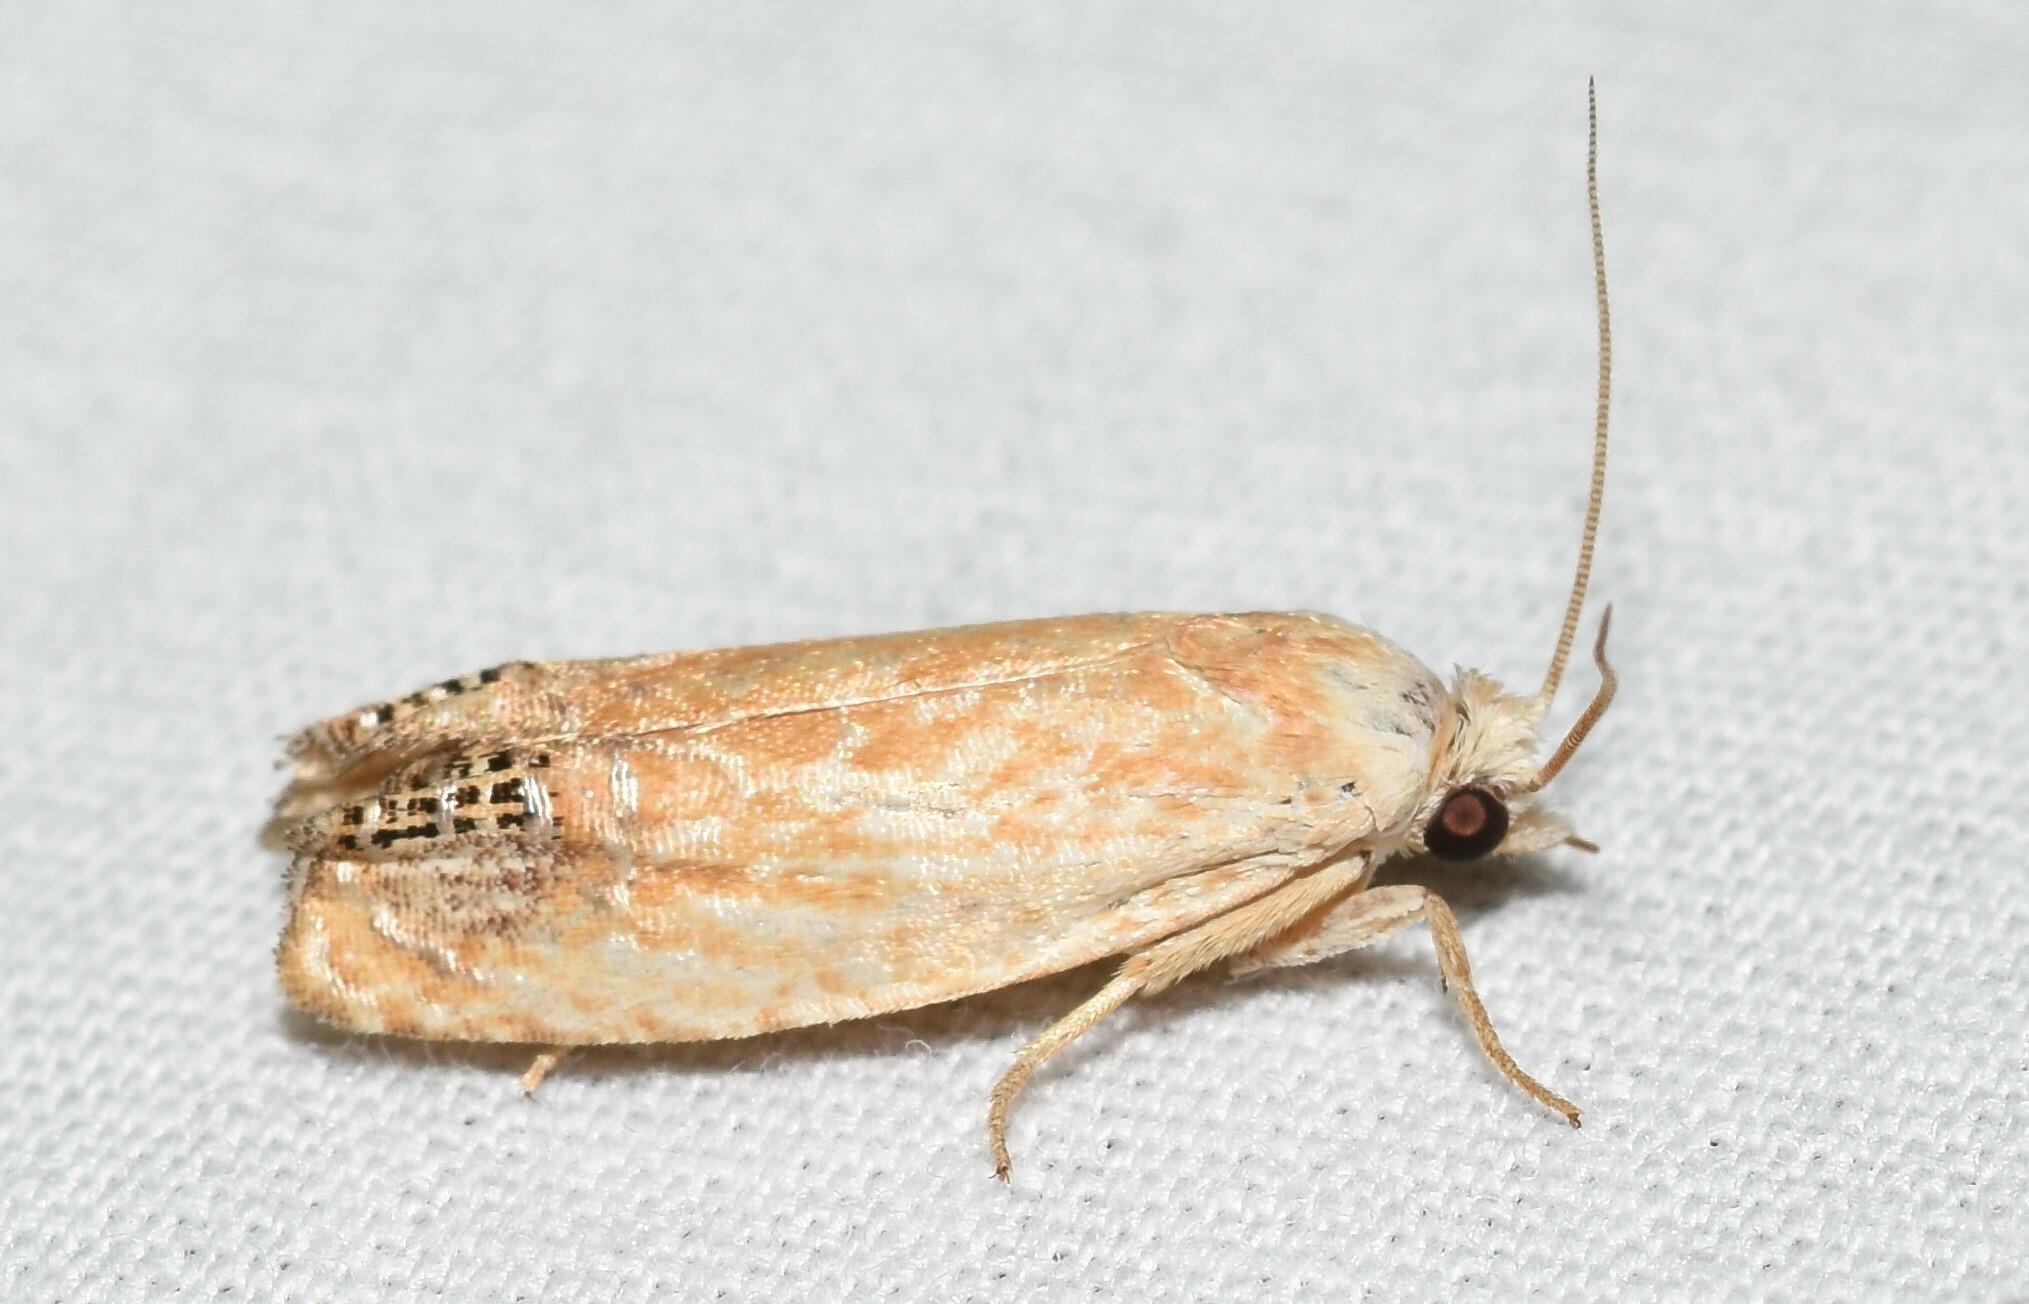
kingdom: Animalia
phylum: Arthropoda
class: Insecta
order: Lepidoptera
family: Tortricidae
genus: Eucosma
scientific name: Eucosma glomerana
